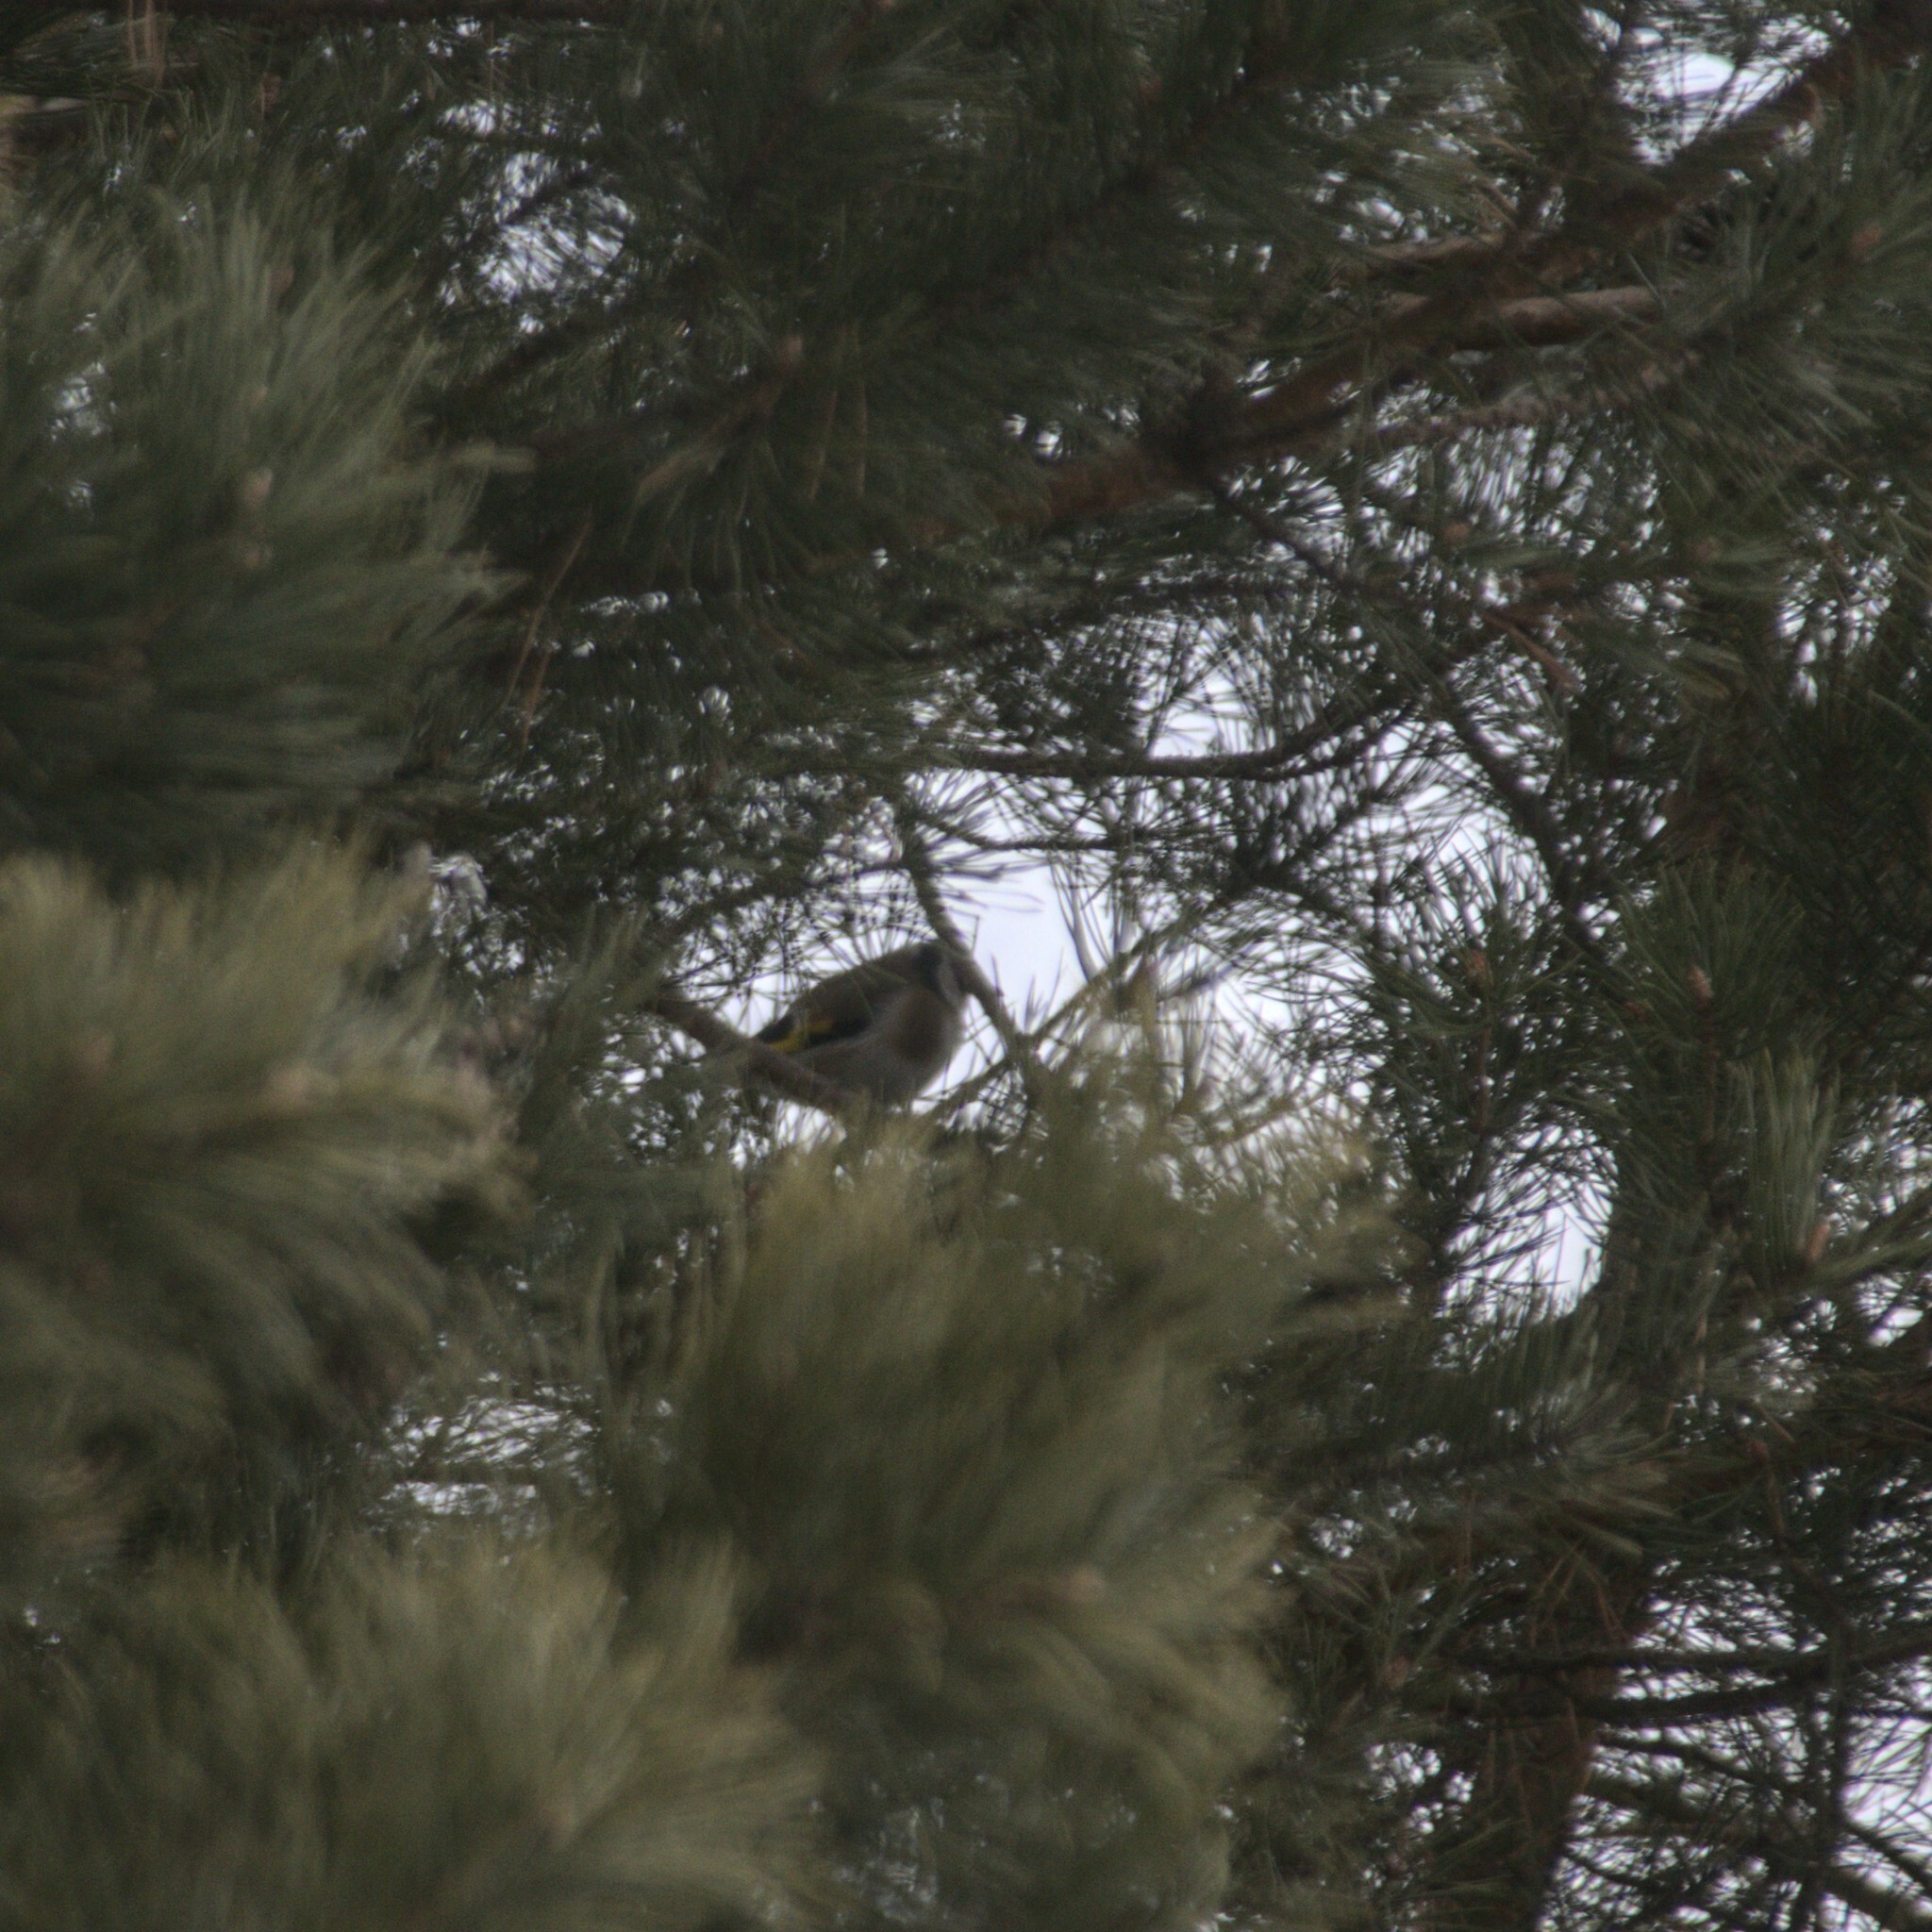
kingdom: Animalia
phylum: Chordata
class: Aves
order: Passeriformes
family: Fringillidae
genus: Carduelis
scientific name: Carduelis carduelis
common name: European goldfinch
